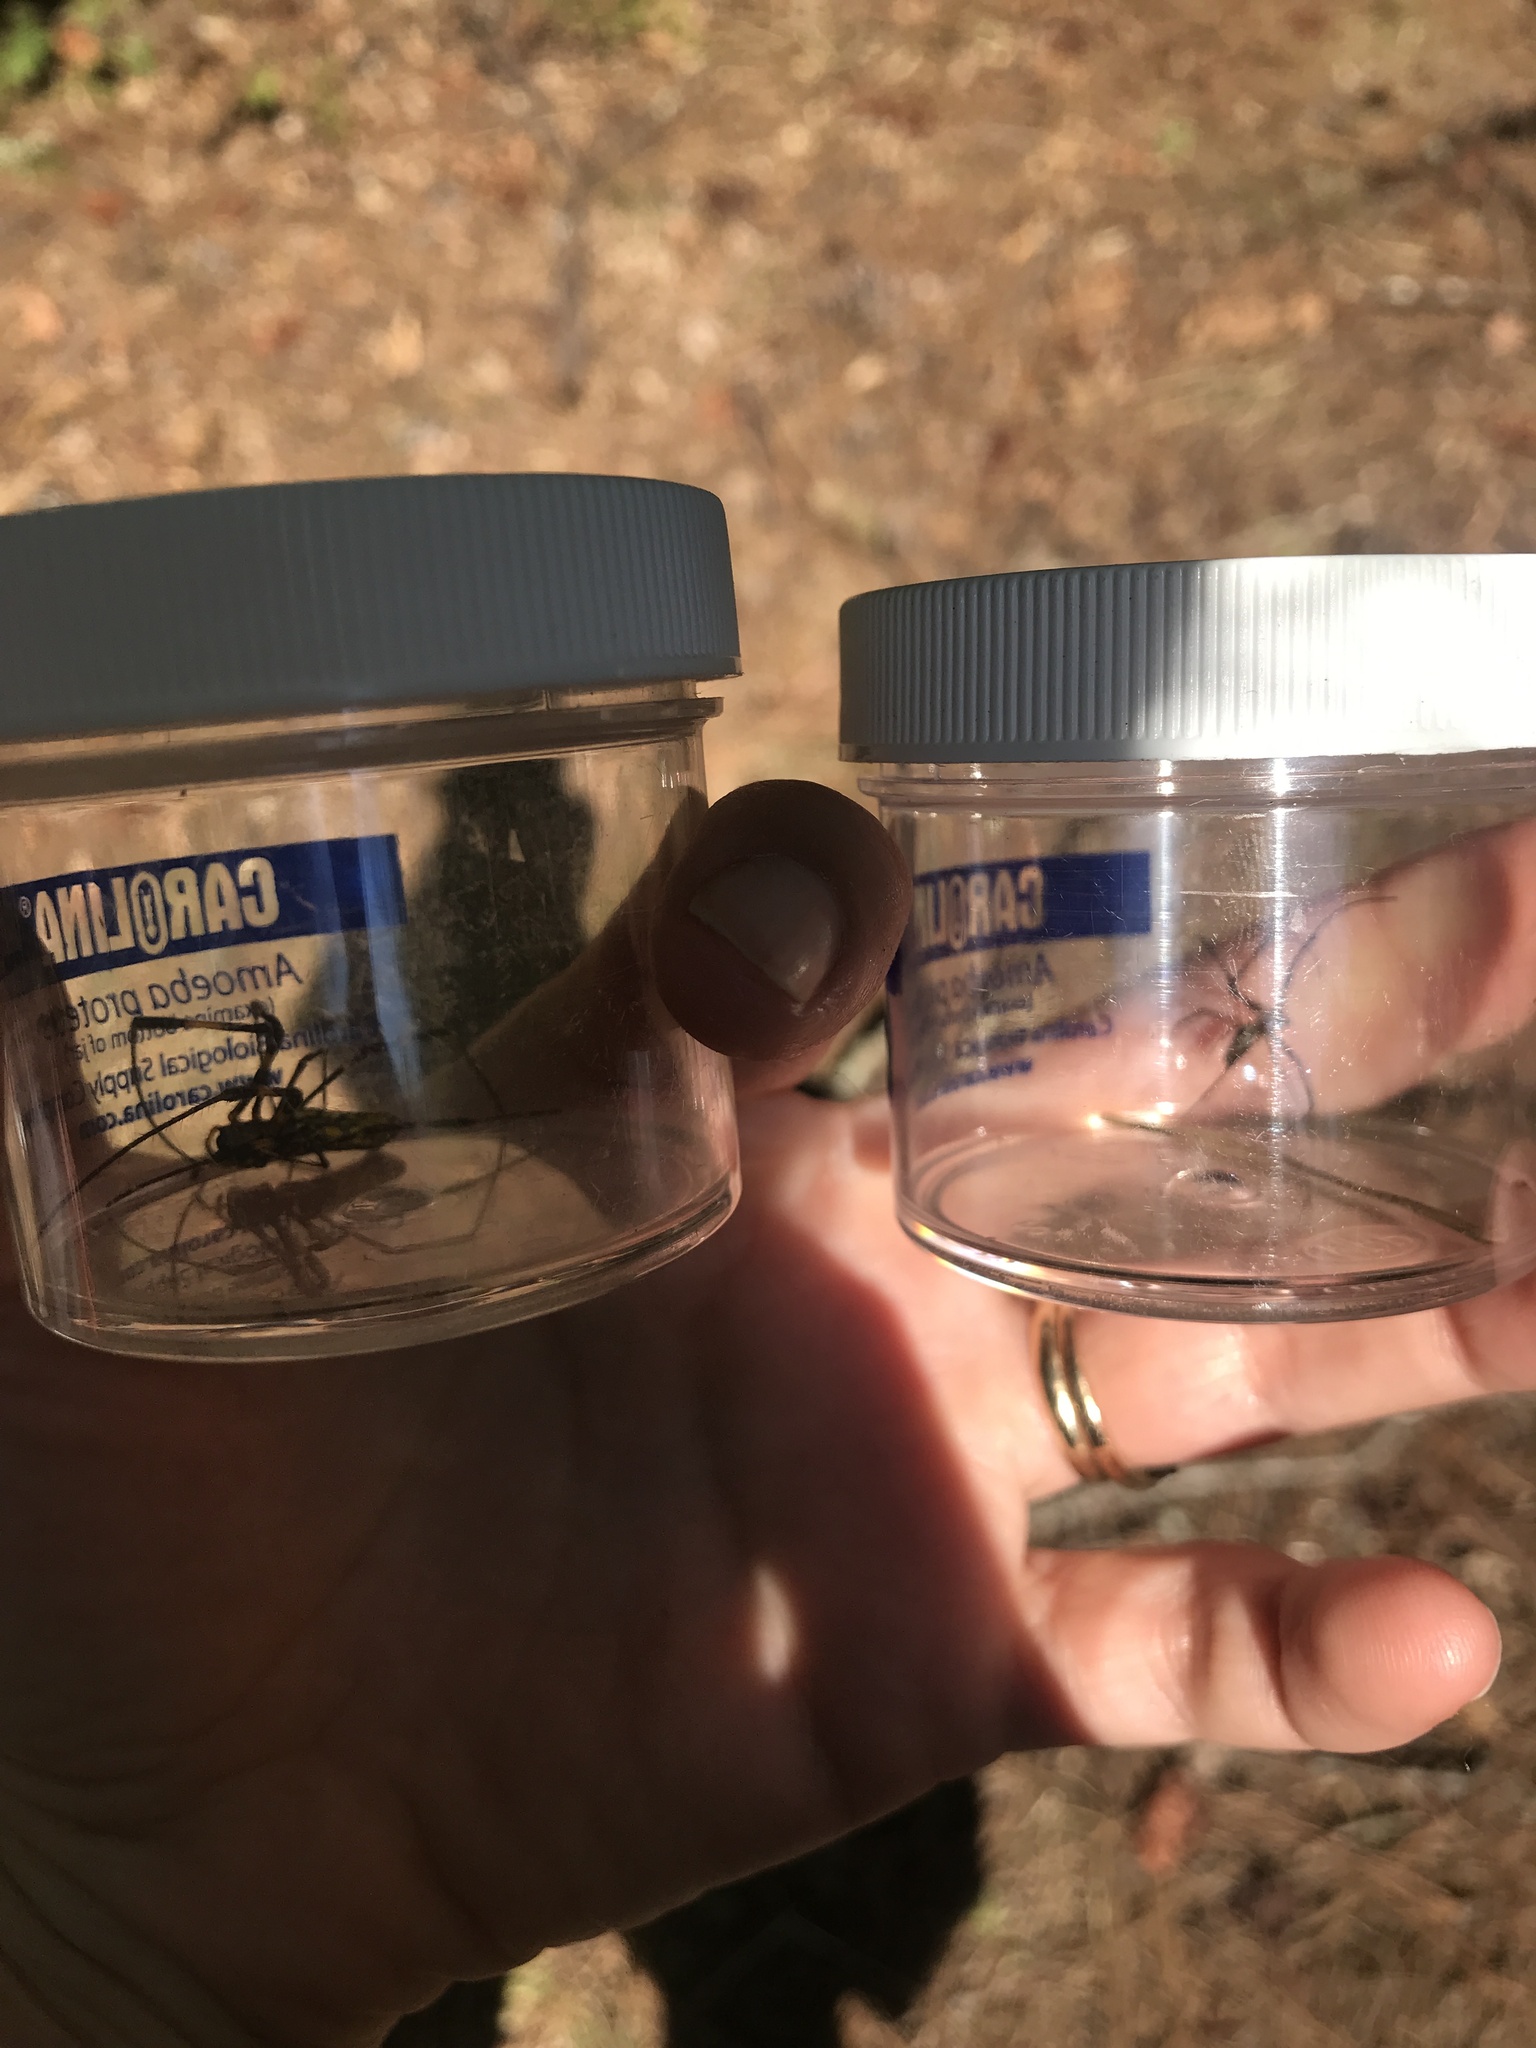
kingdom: Animalia
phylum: Arthropoda
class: Arachnida
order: Araneae
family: Araneidae
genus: Trichonephila
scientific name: Trichonephila clavata
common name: Jorō spider
